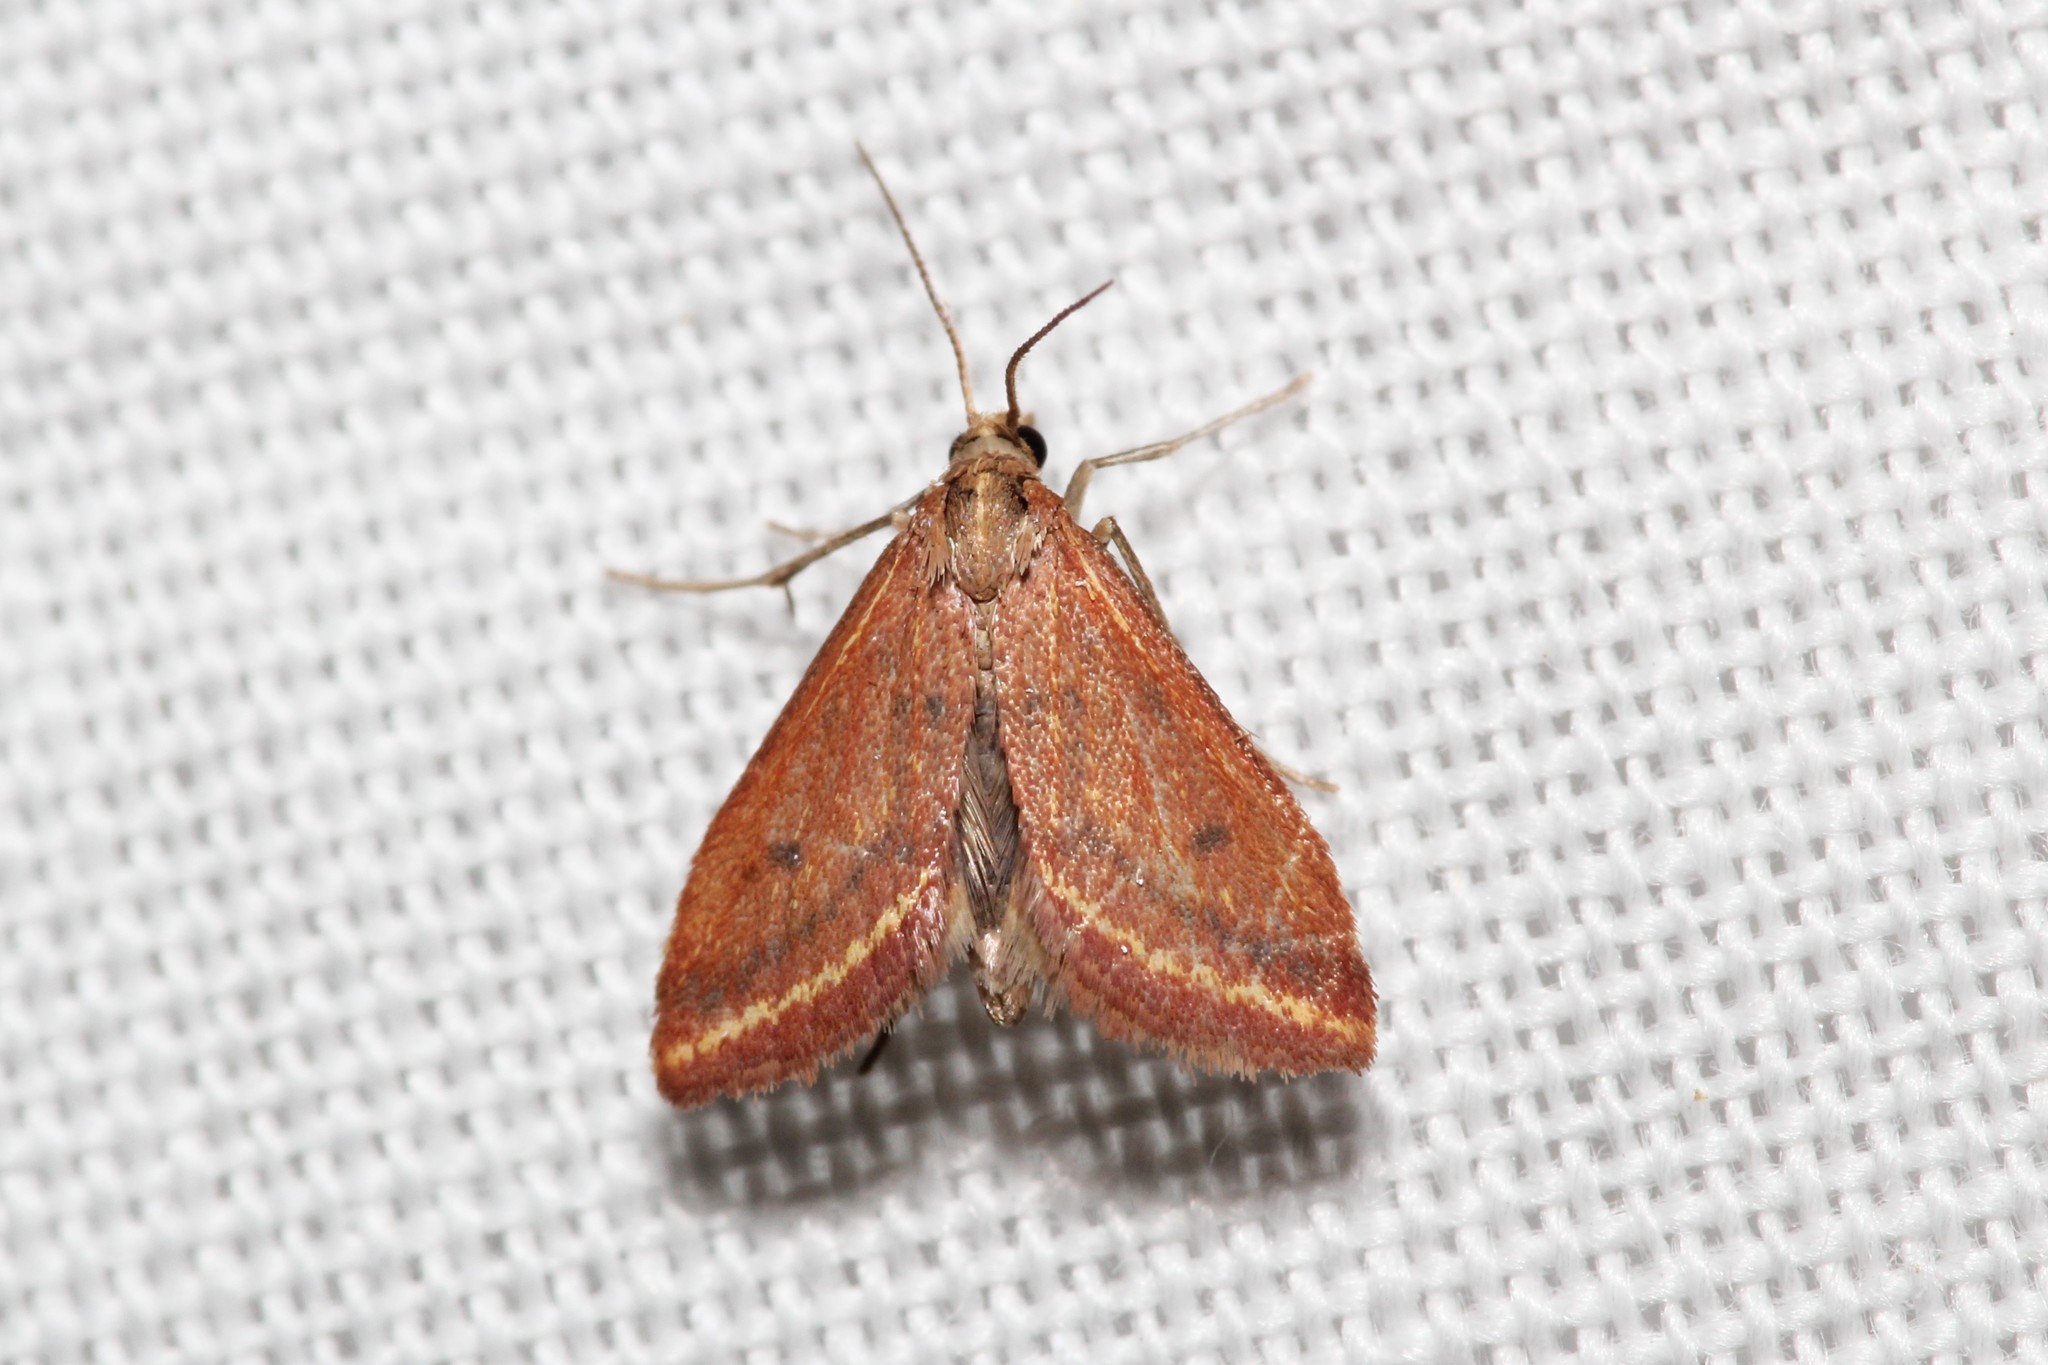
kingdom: Animalia
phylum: Arthropoda
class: Insecta
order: Lepidoptera
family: Crambidae
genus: Microtheoris
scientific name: Microtheoris ophionalis
